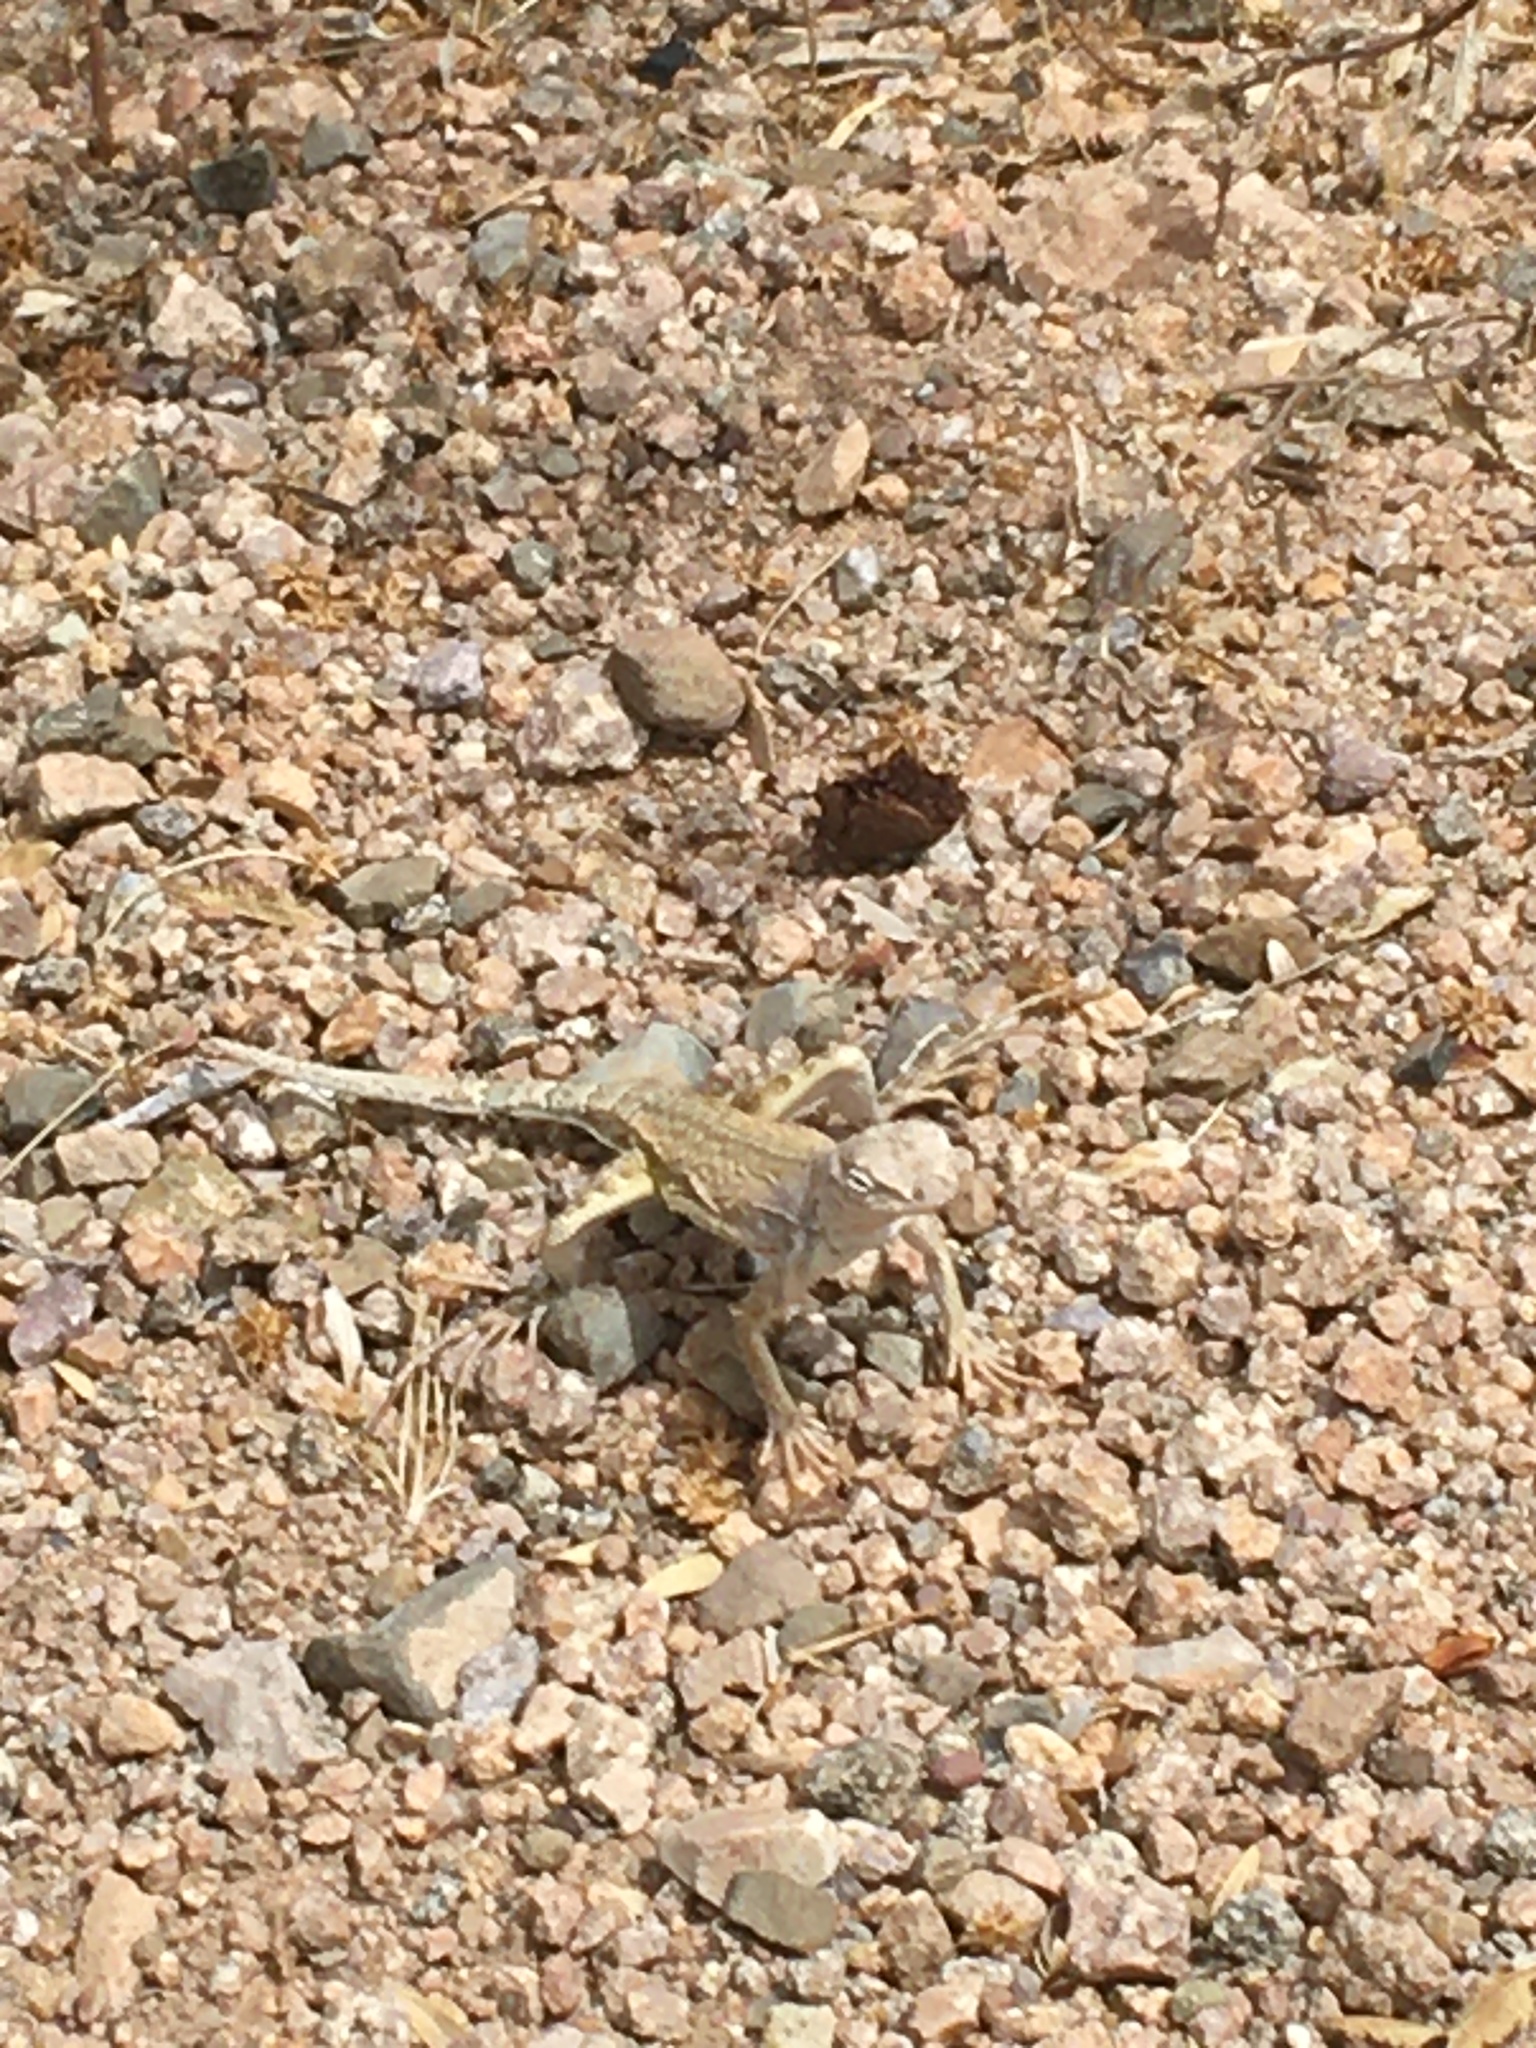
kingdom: Animalia
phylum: Chordata
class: Squamata
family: Phrynosomatidae
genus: Callisaurus
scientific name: Callisaurus draconoides
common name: Zebra-tailed lizard
